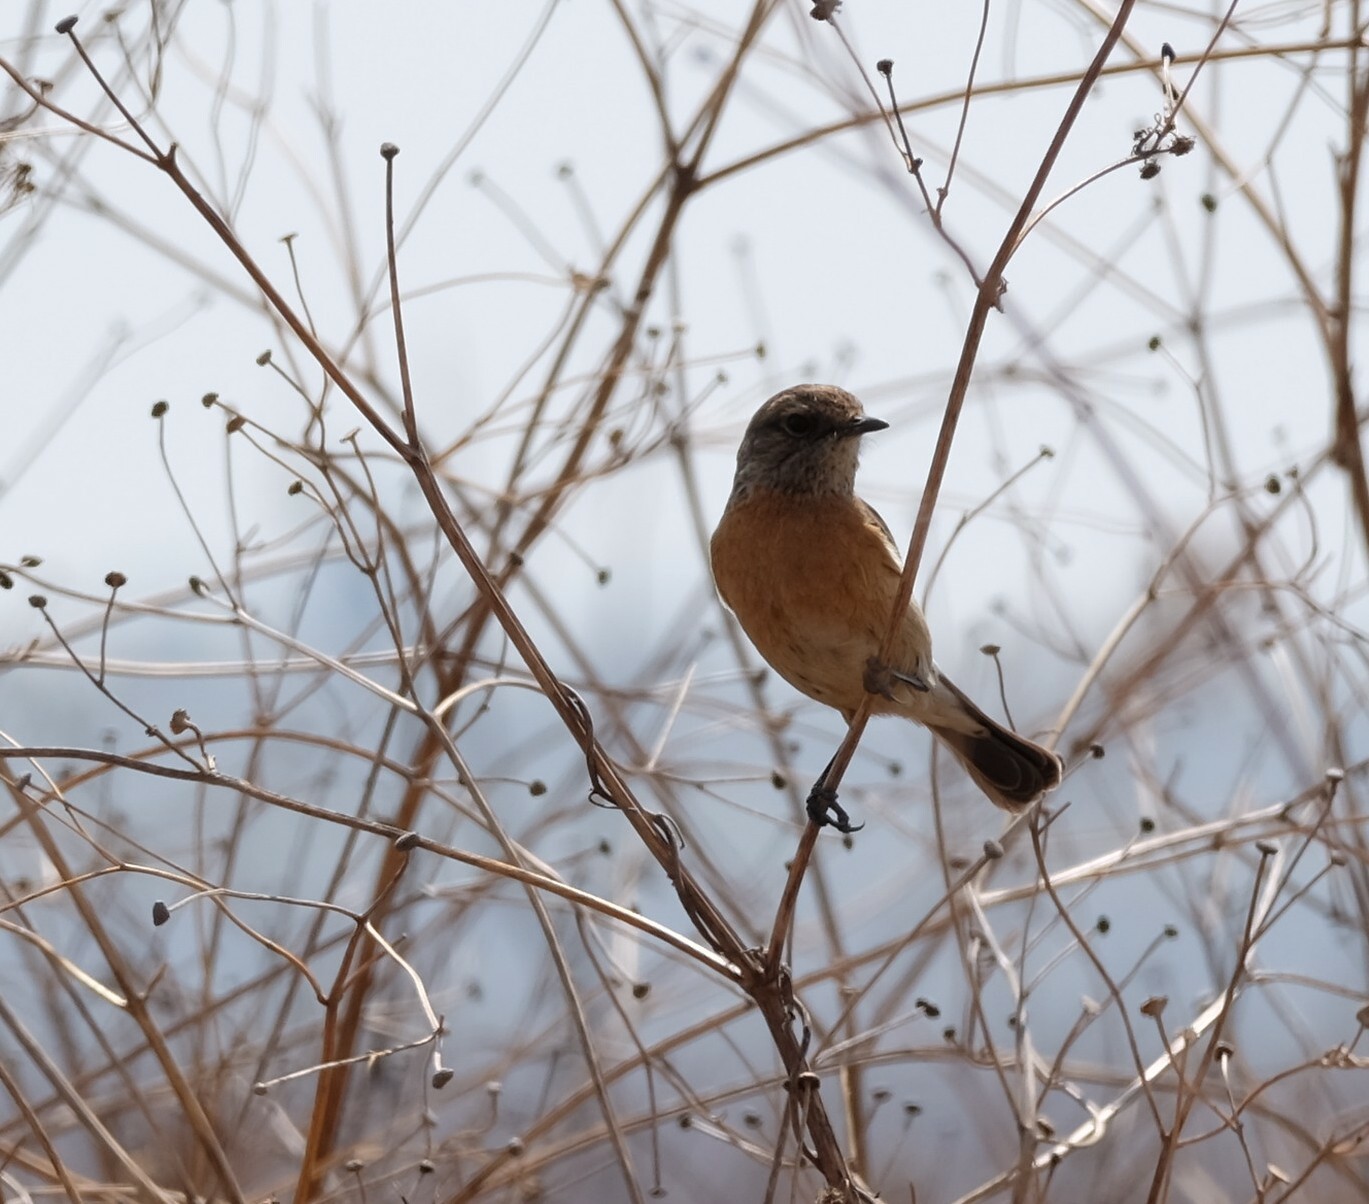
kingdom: Animalia
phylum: Chordata
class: Aves
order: Passeriformes
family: Muscicapidae
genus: Saxicola
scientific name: Saxicola torquatus
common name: African stonechat
